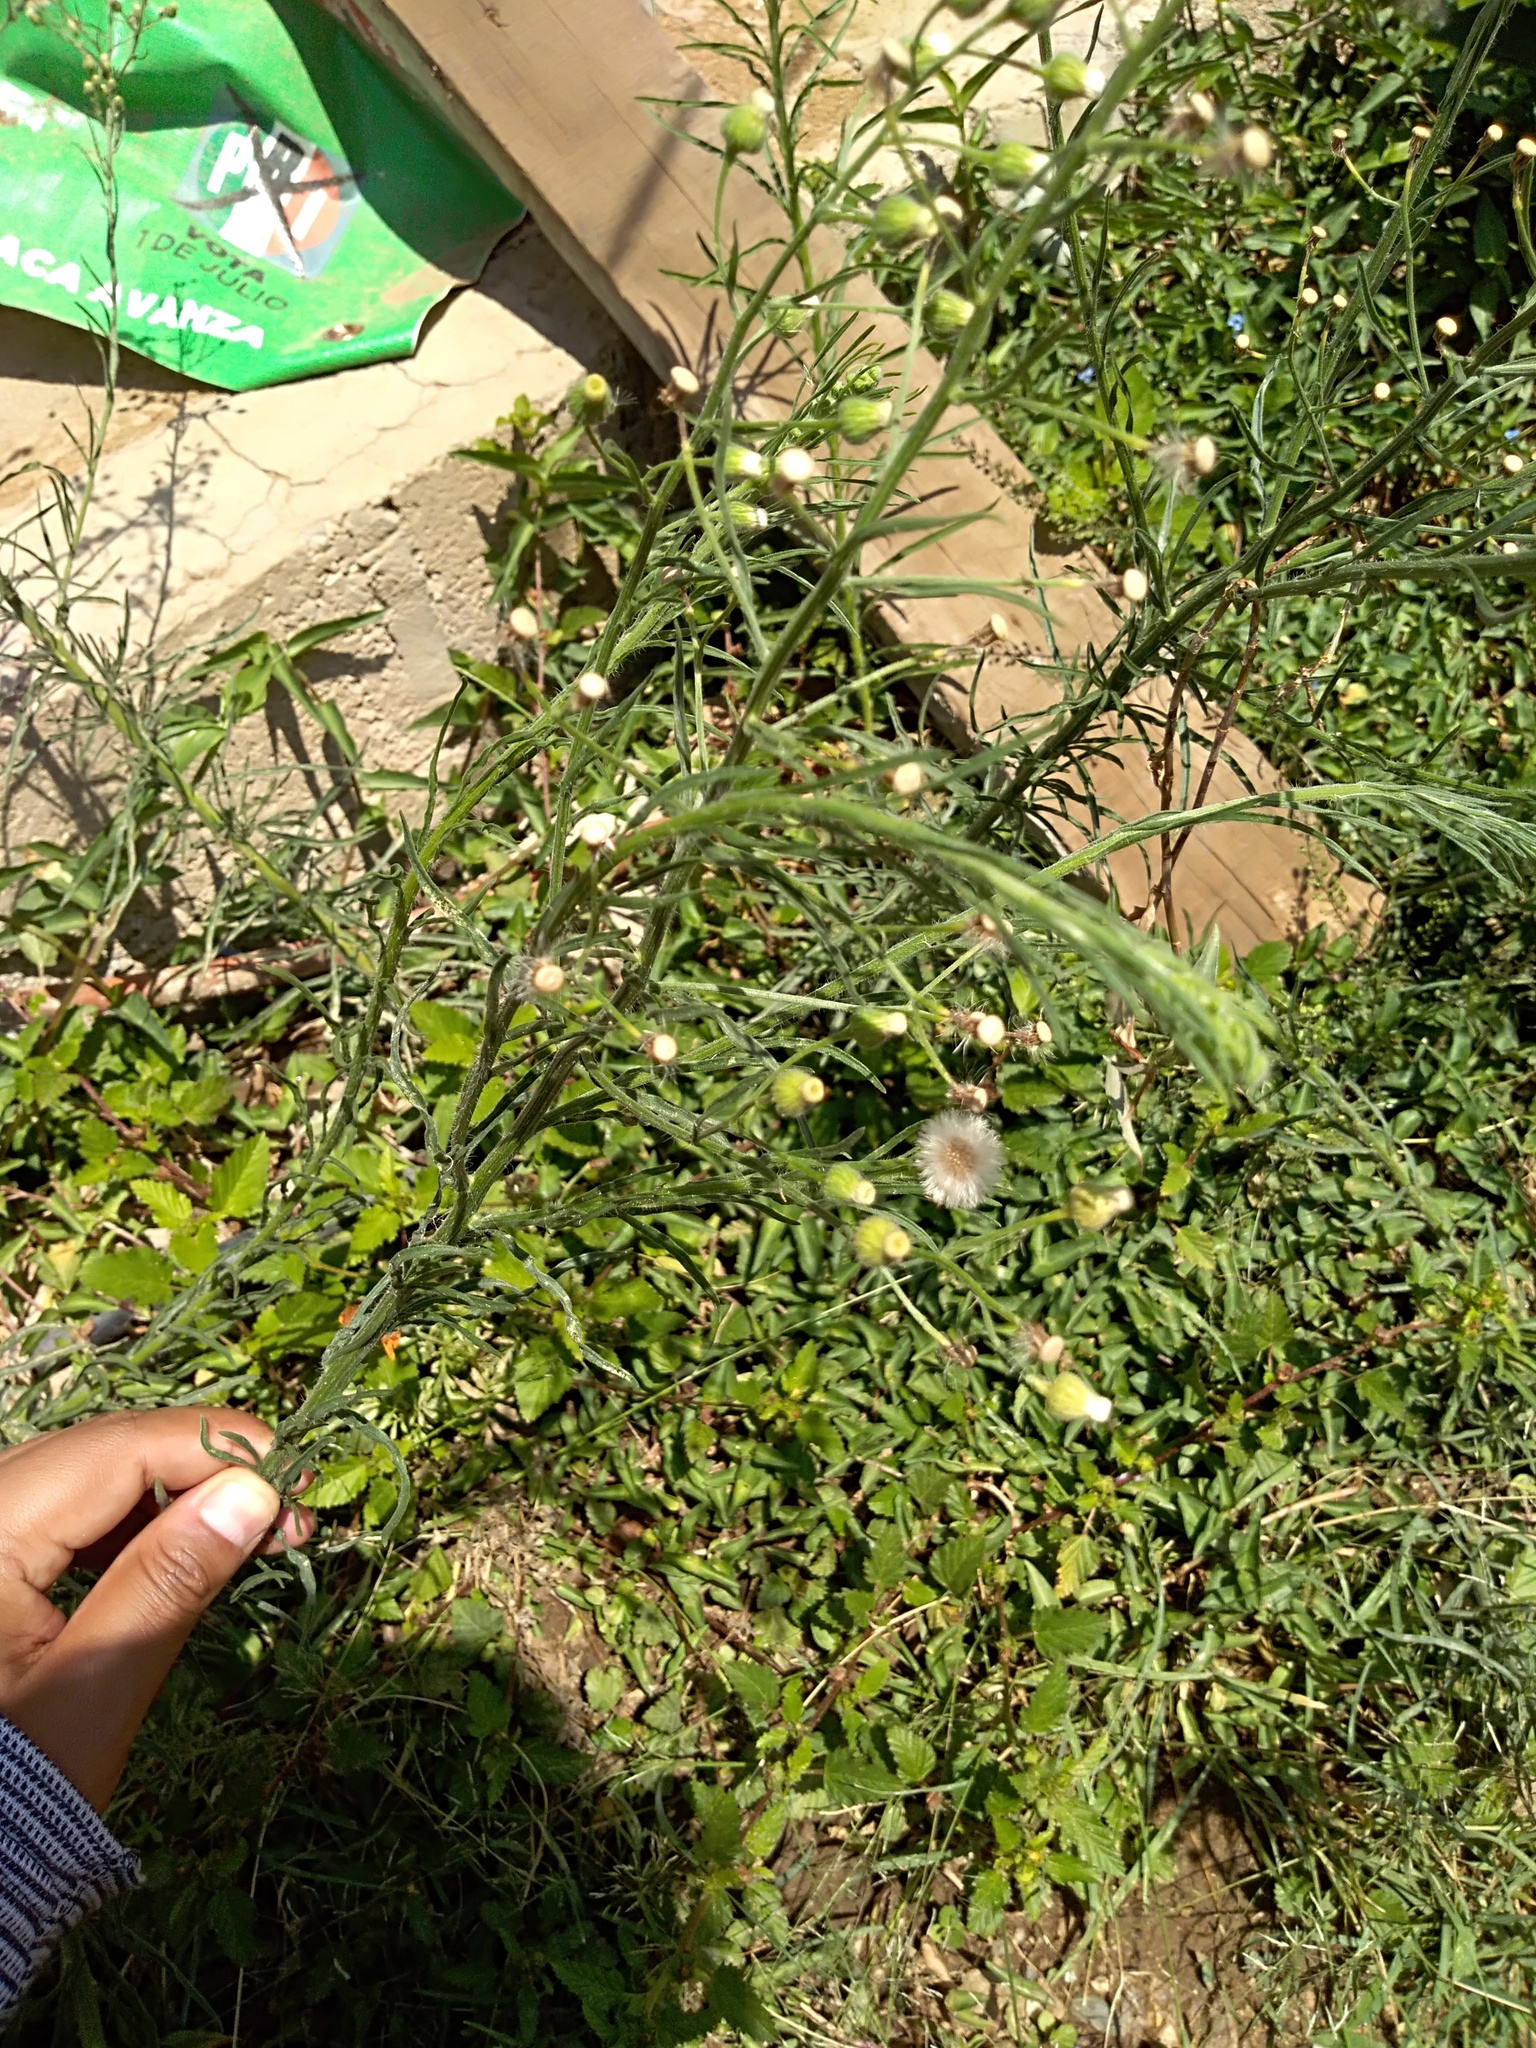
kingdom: Plantae
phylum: Tracheophyta
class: Magnoliopsida
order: Asterales
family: Asteraceae
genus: Erigeron
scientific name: Erigeron bonariensis
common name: Argentine fleabane
